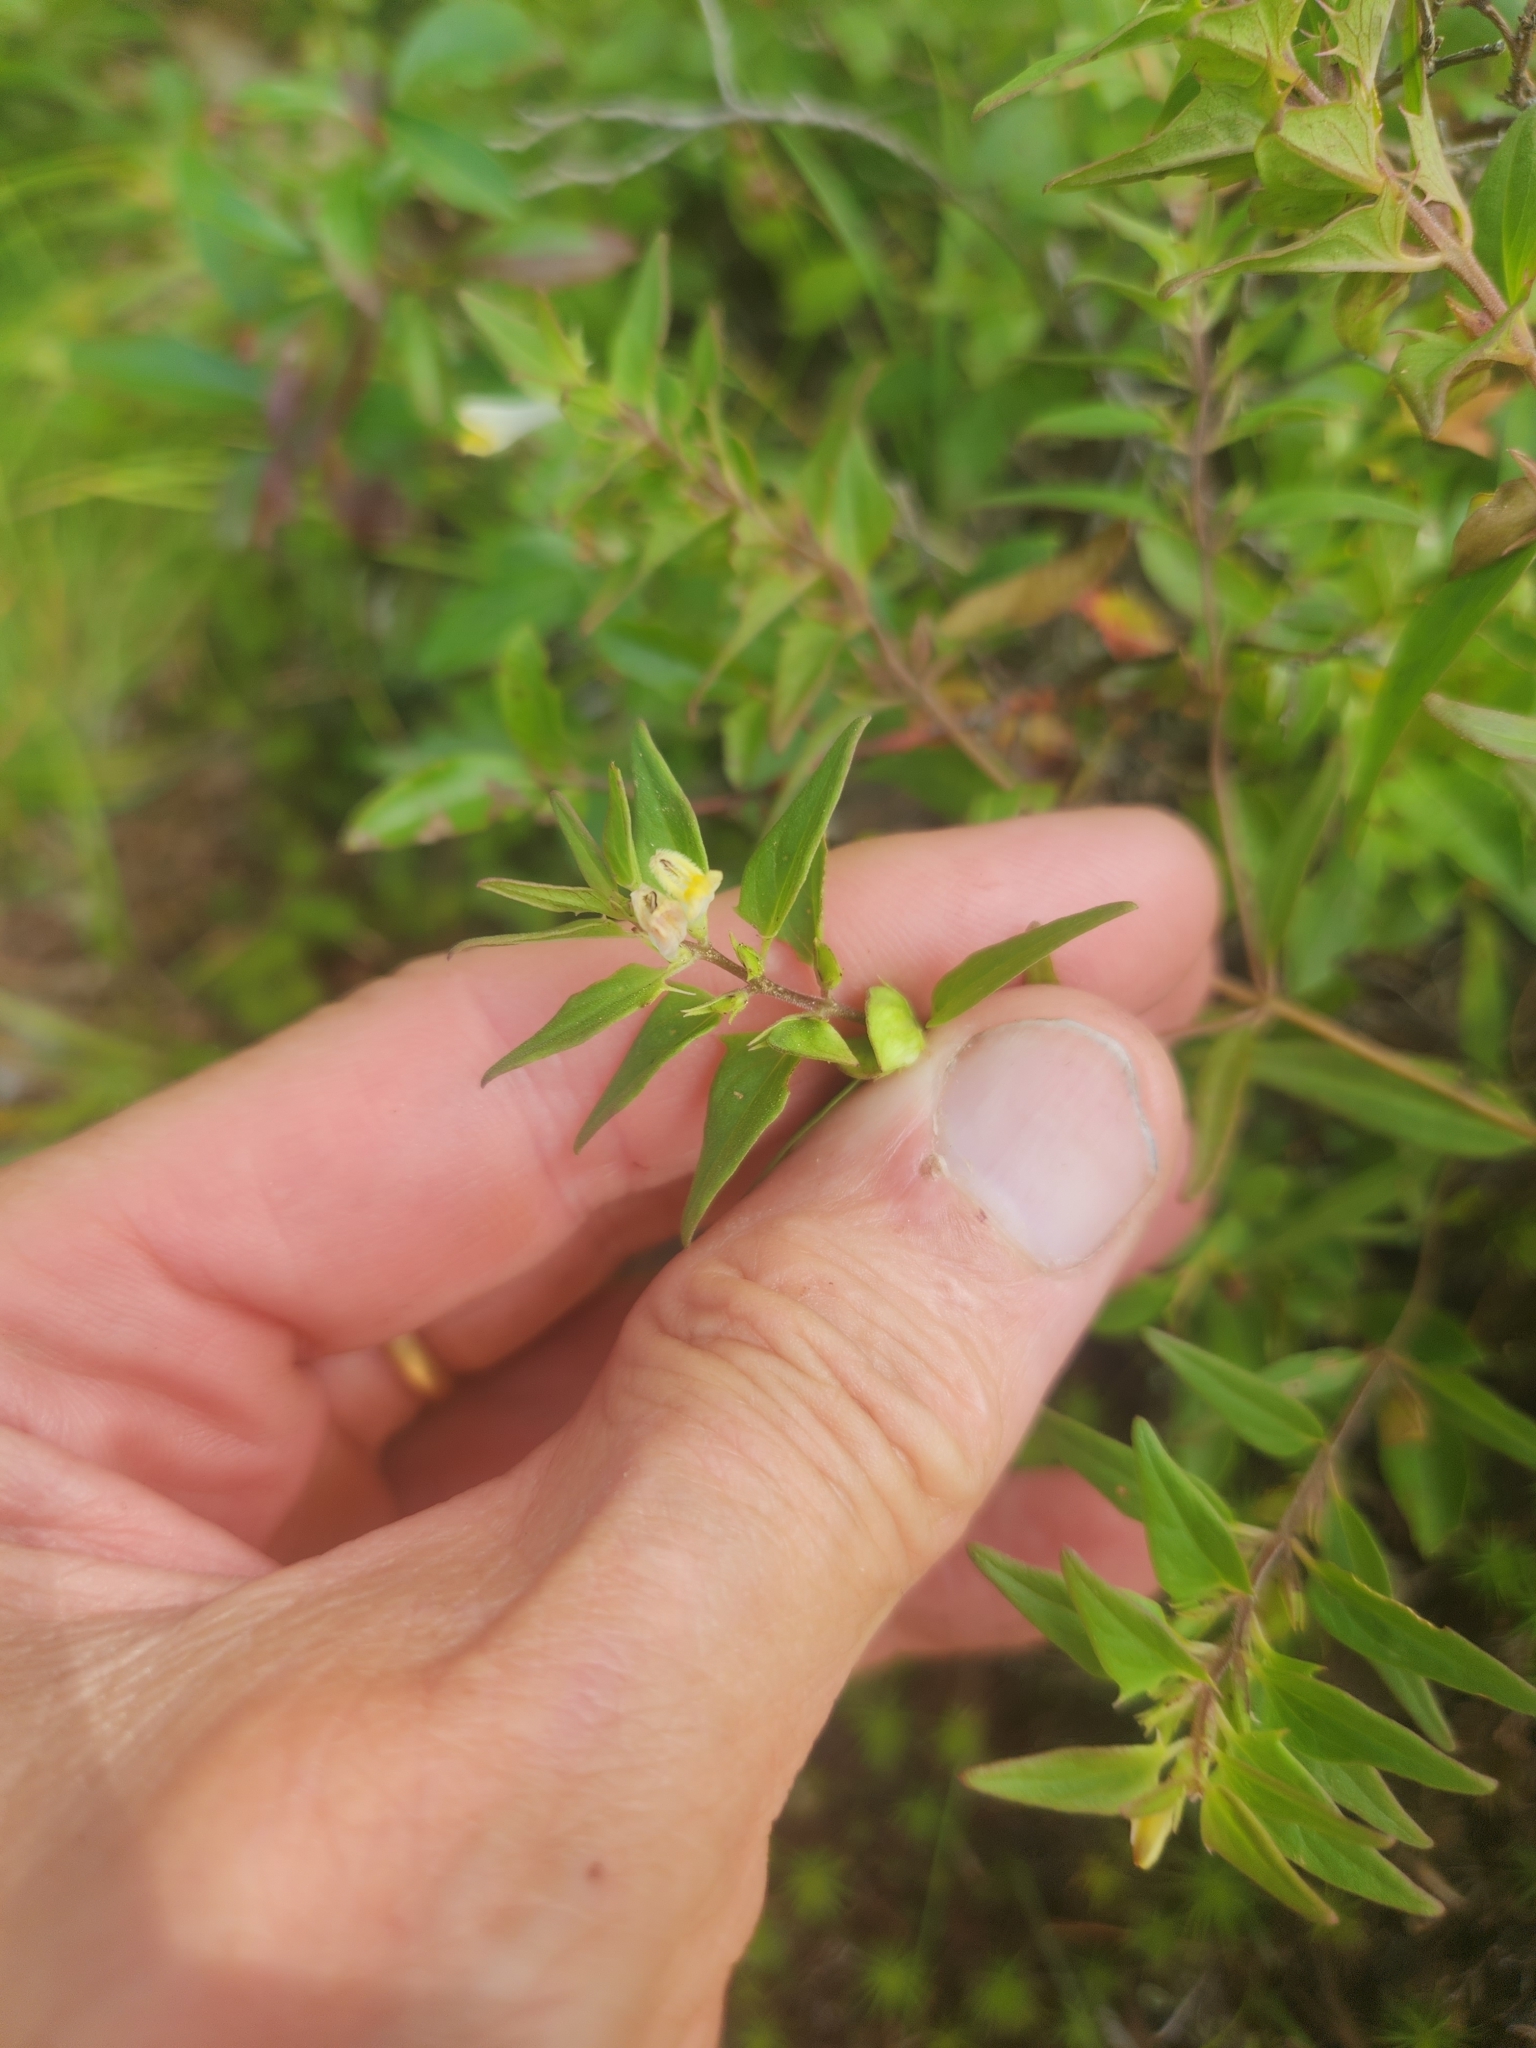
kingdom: Plantae
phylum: Tracheophyta
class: Magnoliopsida
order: Lamiales
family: Orobanchaceae
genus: Melampyrum
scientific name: Melampyrum lineare
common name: American cow-wheat
